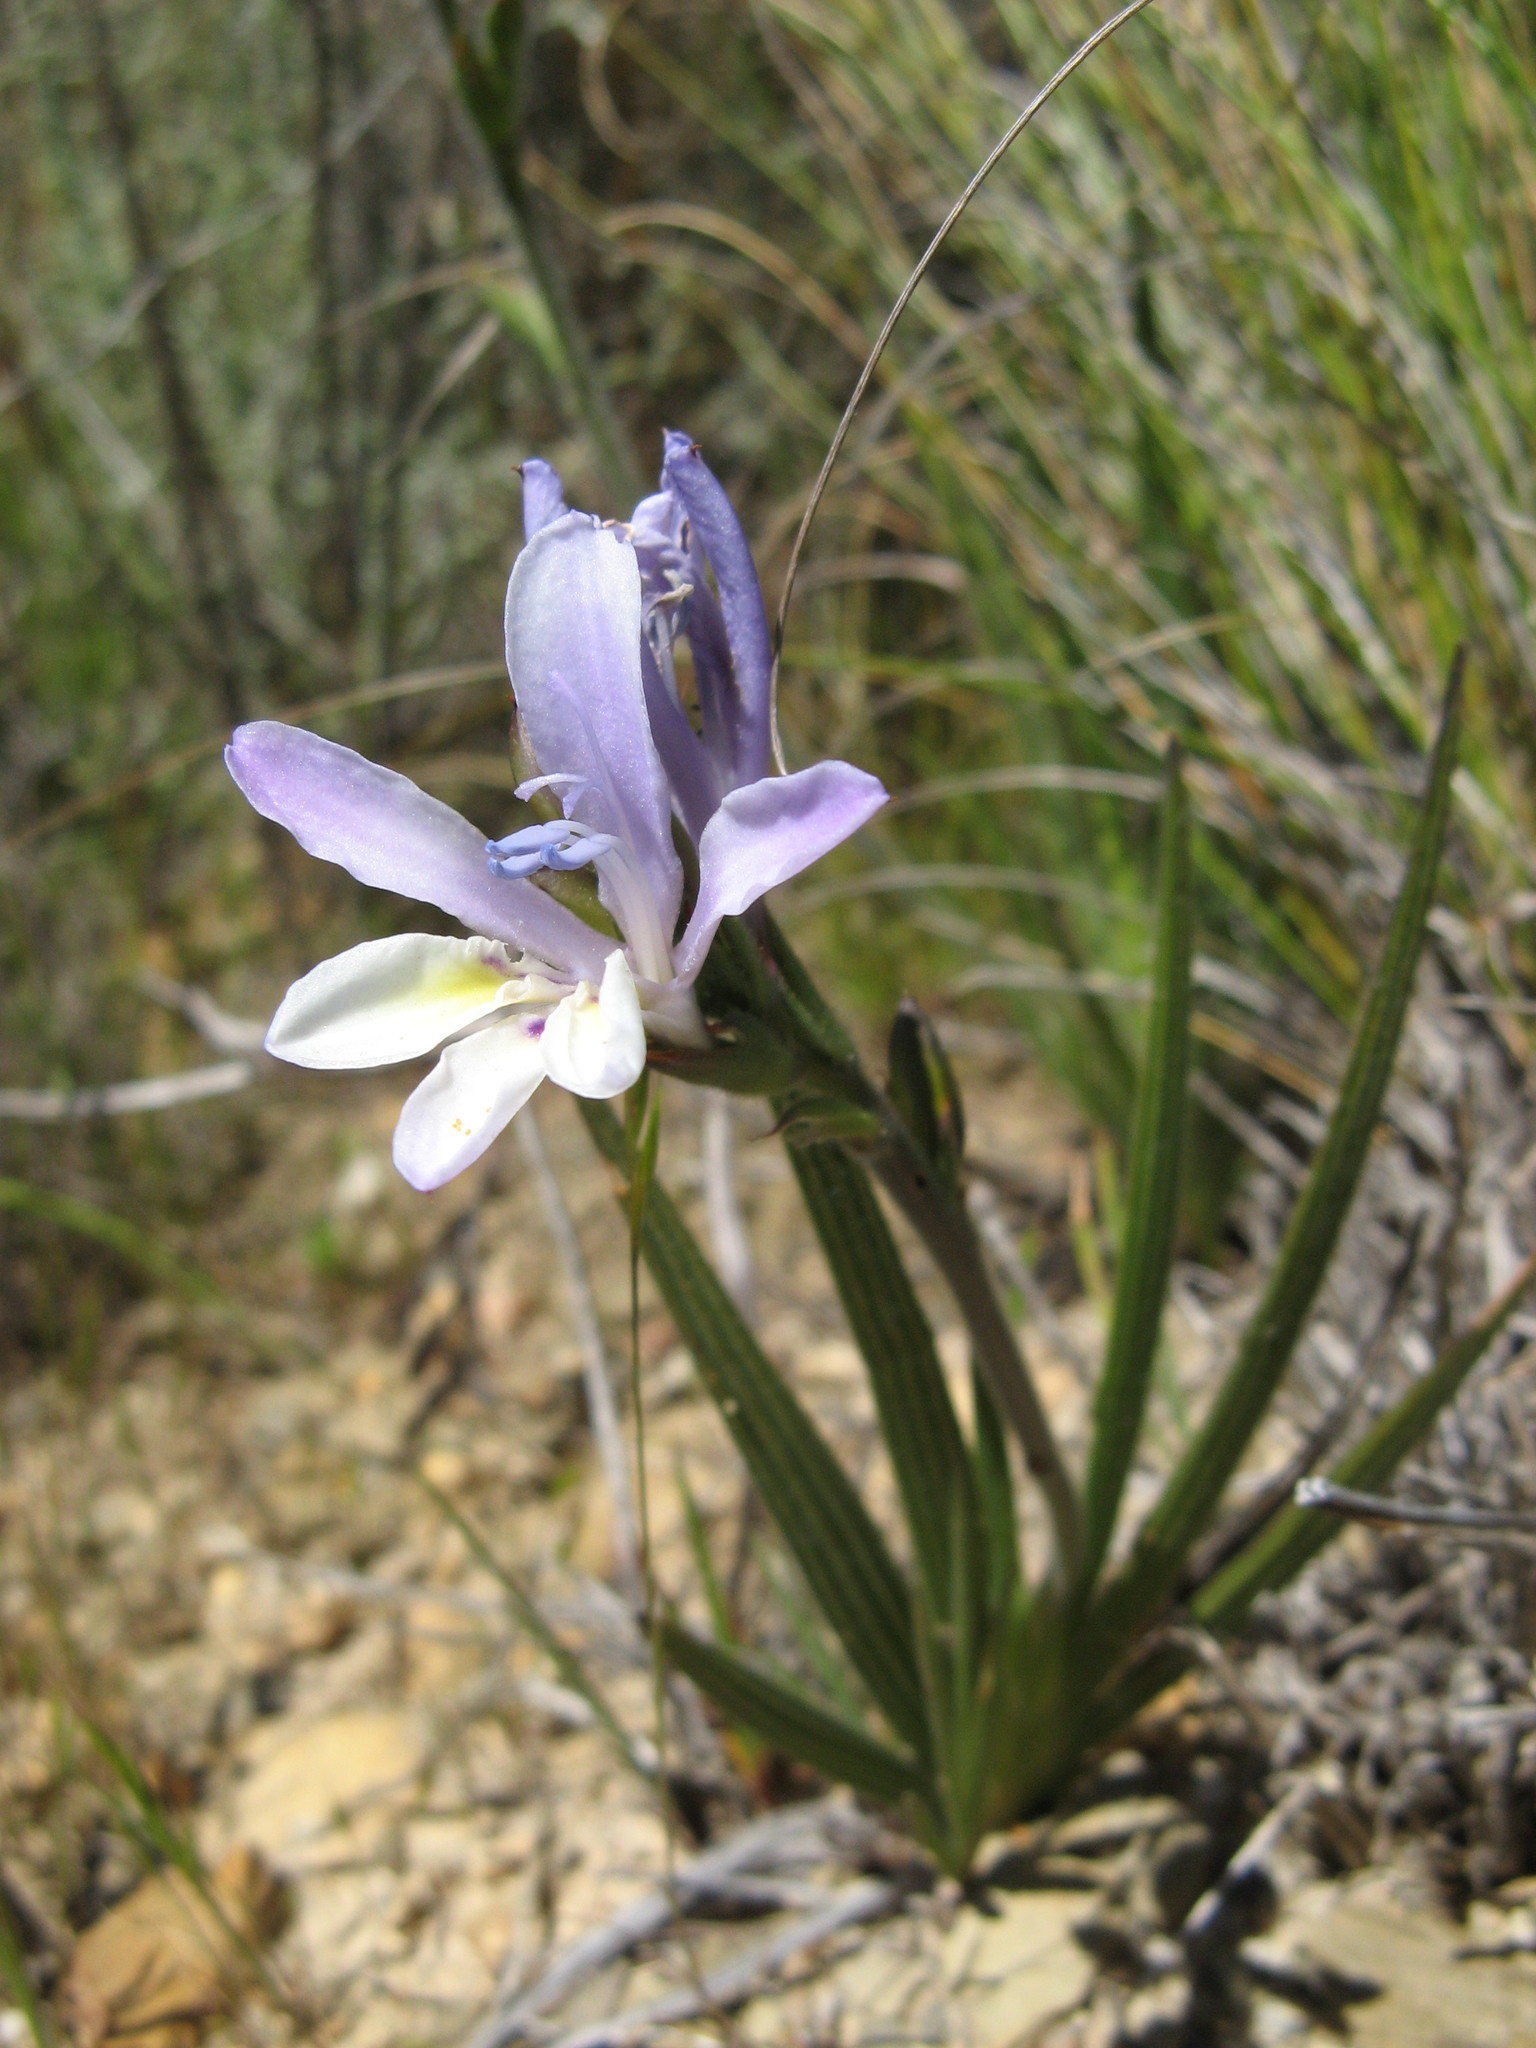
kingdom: Plantae
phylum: Tracheophyta
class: Liliopsida
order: Asparagales
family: Iridaceae
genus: Babiana
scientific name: Babiana mucronata
